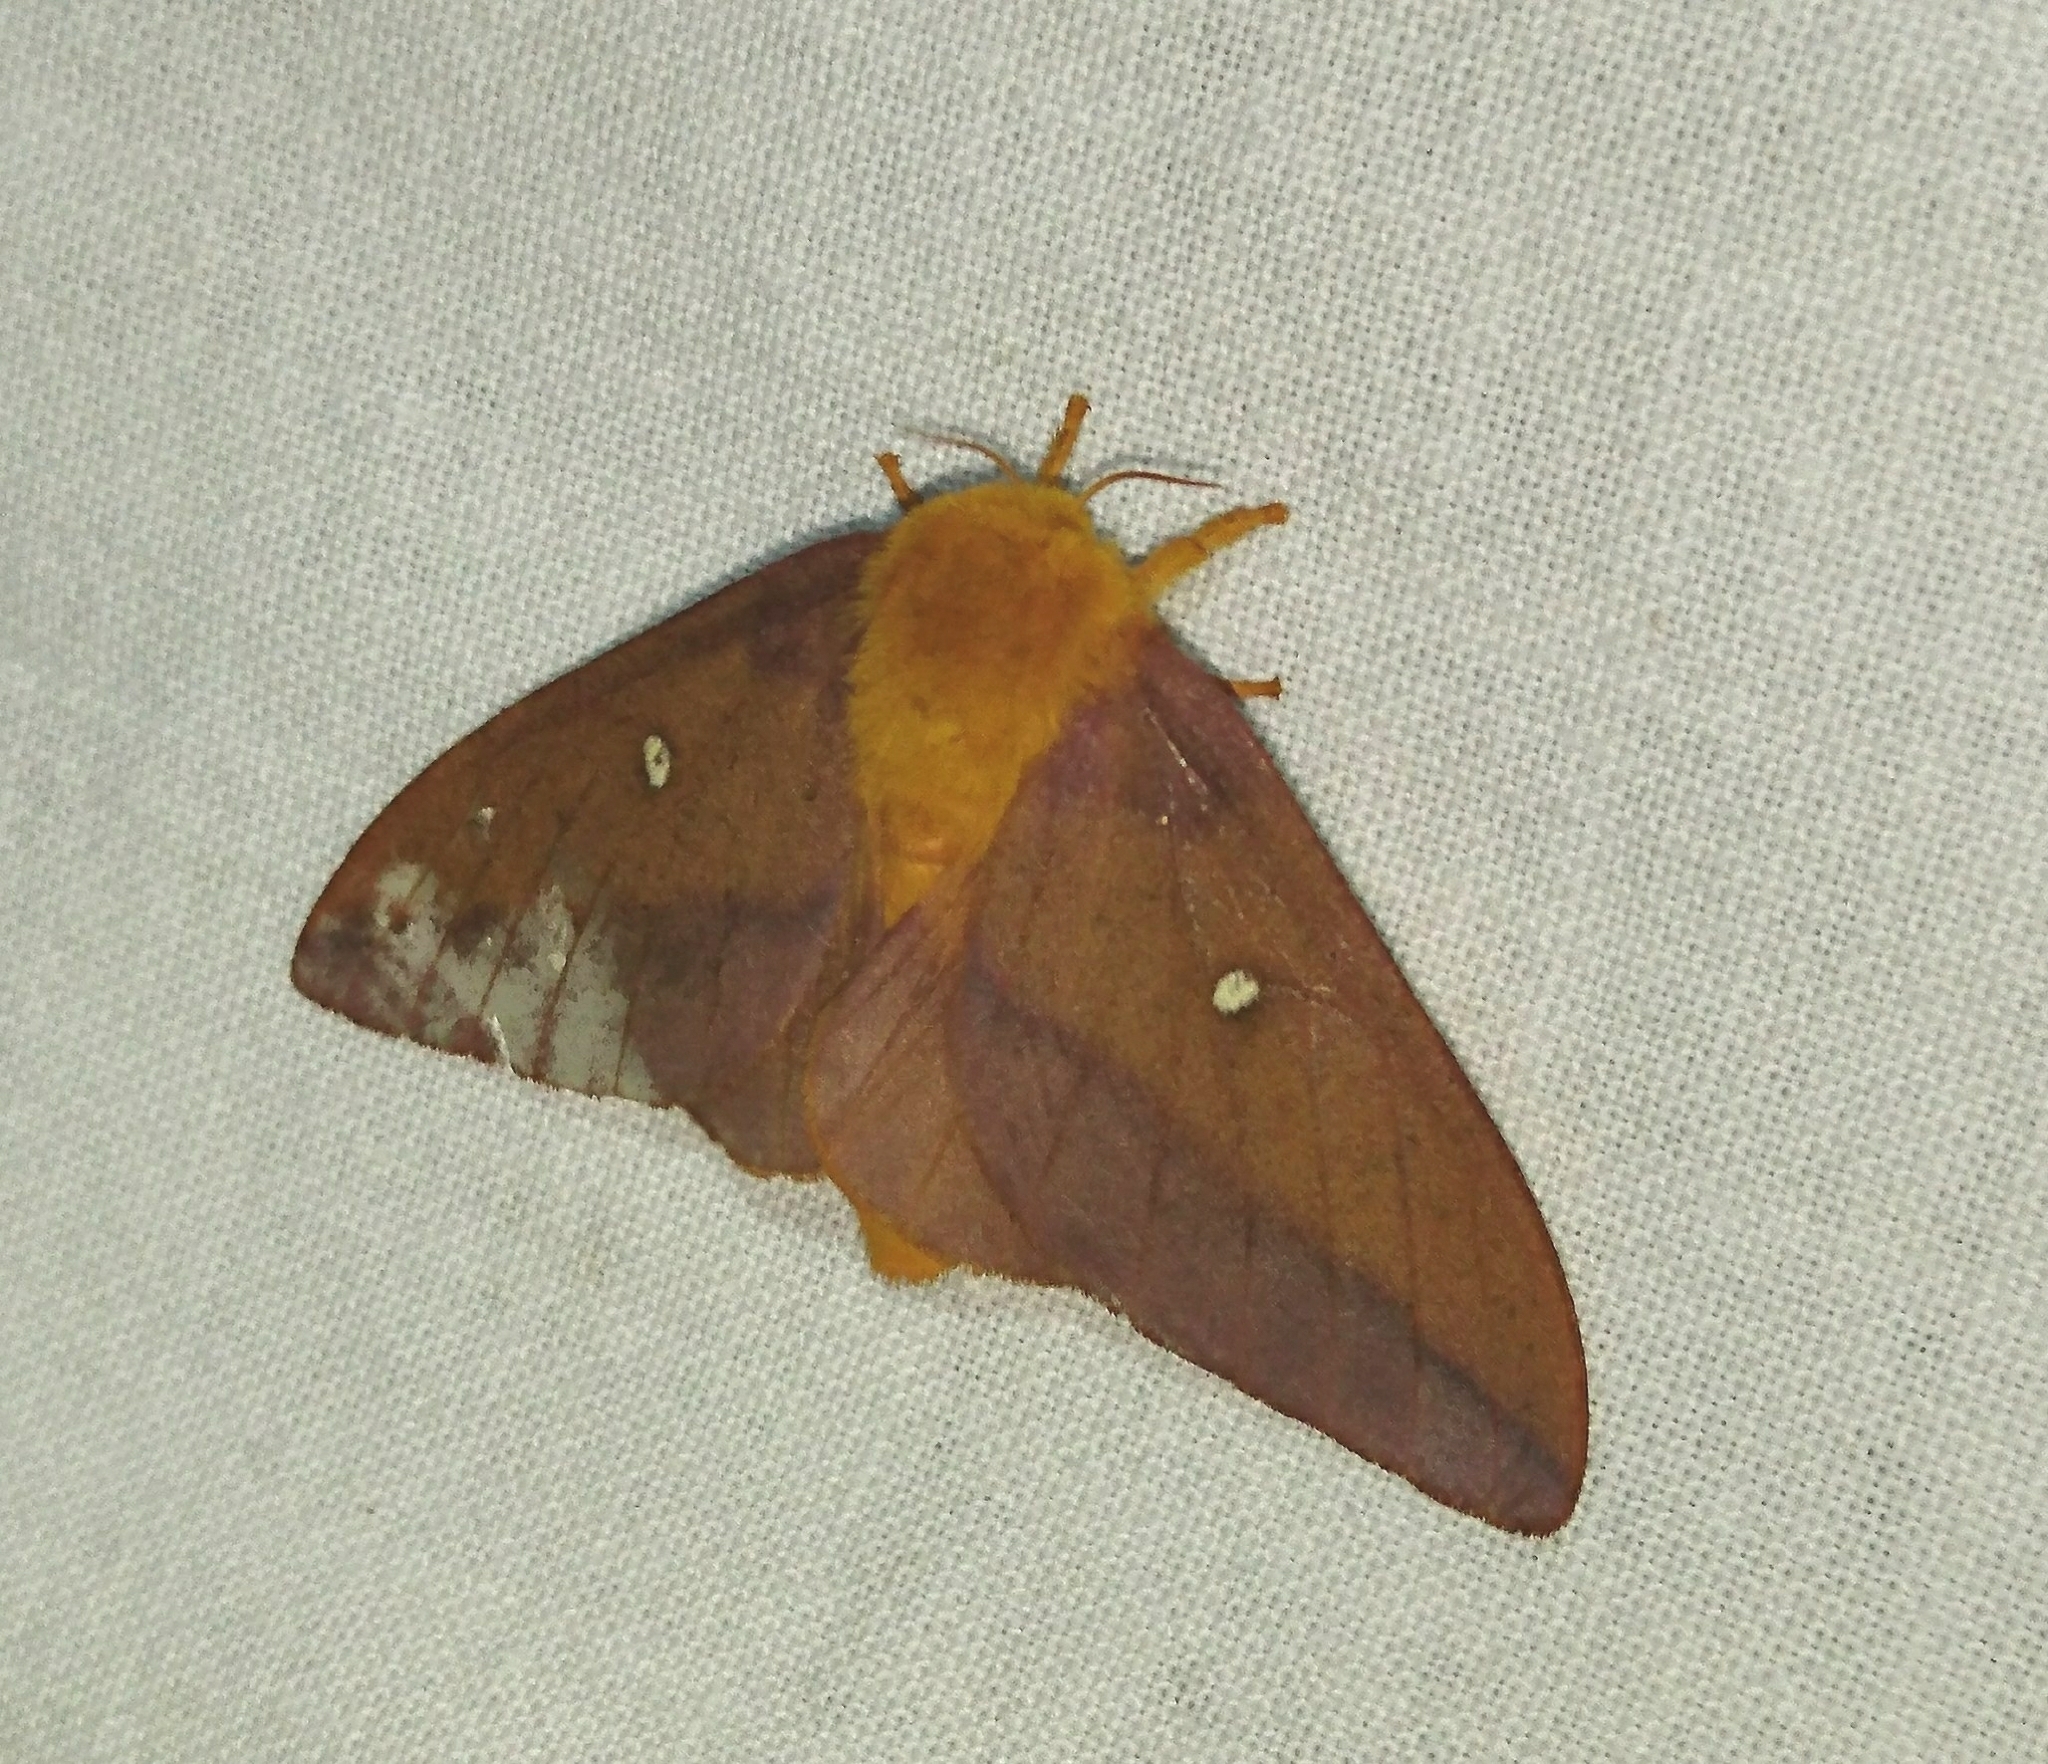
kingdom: Animalia
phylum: Arthropoda
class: Insecta
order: Lepidoptera
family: Saturniidae
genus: Anisota
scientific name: Anisota virginiensis
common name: Pink striped oakworm moth
